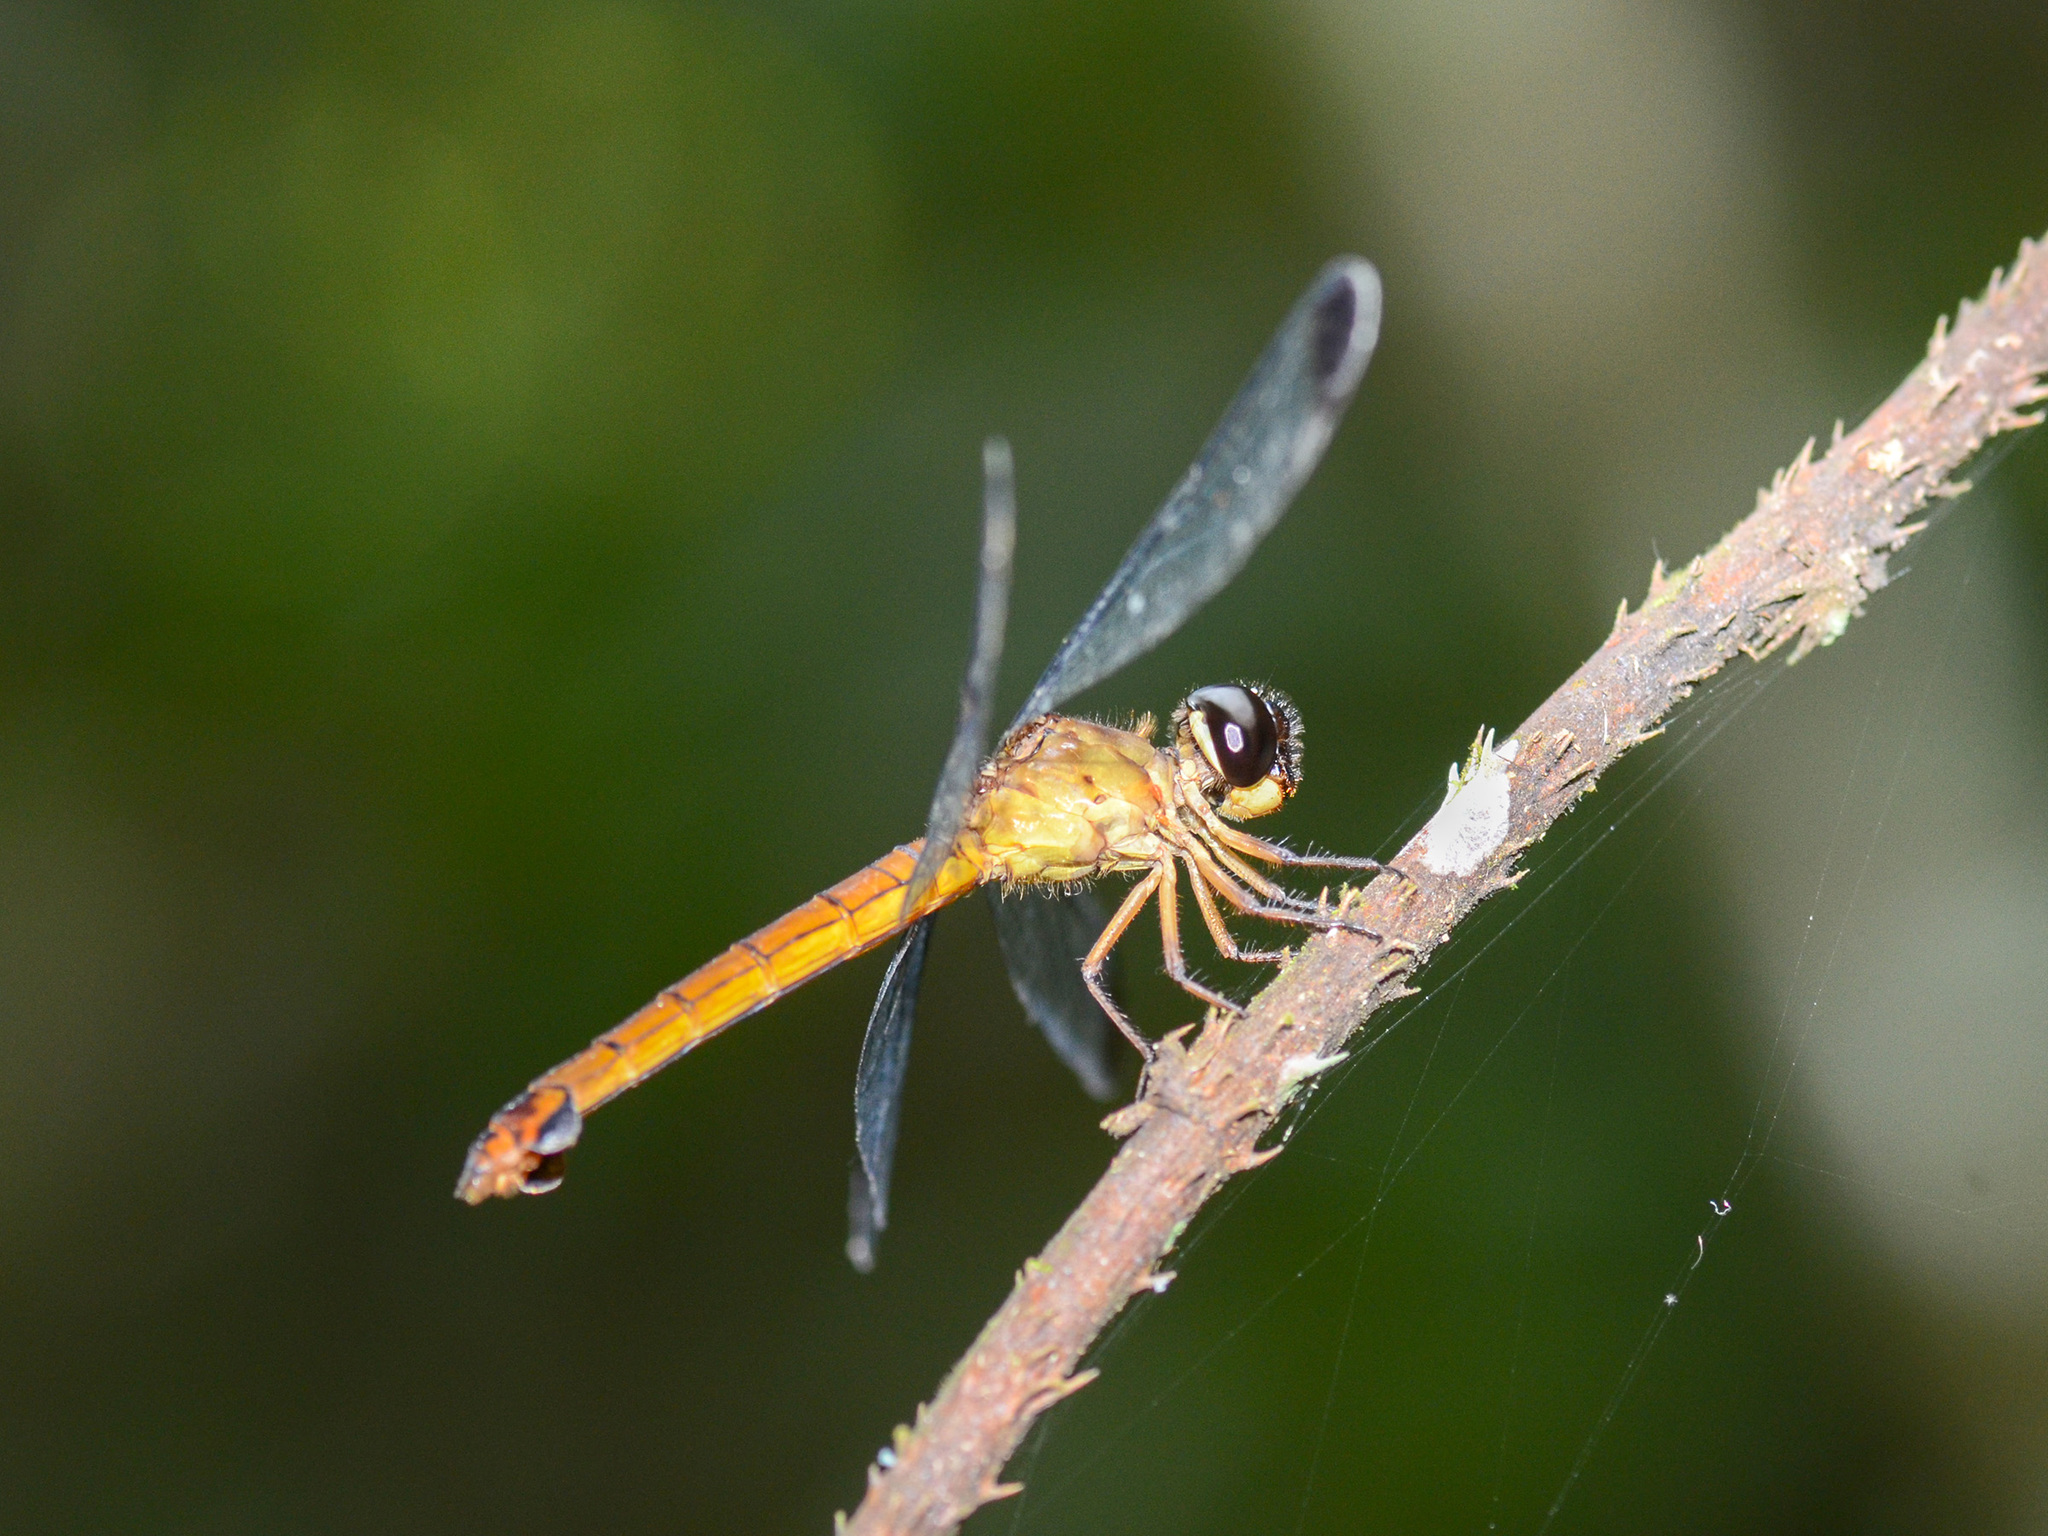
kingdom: Animalia
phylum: Arthropoda
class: Insecta
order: Odonata
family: Libellulidae
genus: Lyriothemis
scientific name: Lyriothemis biappendiculata
